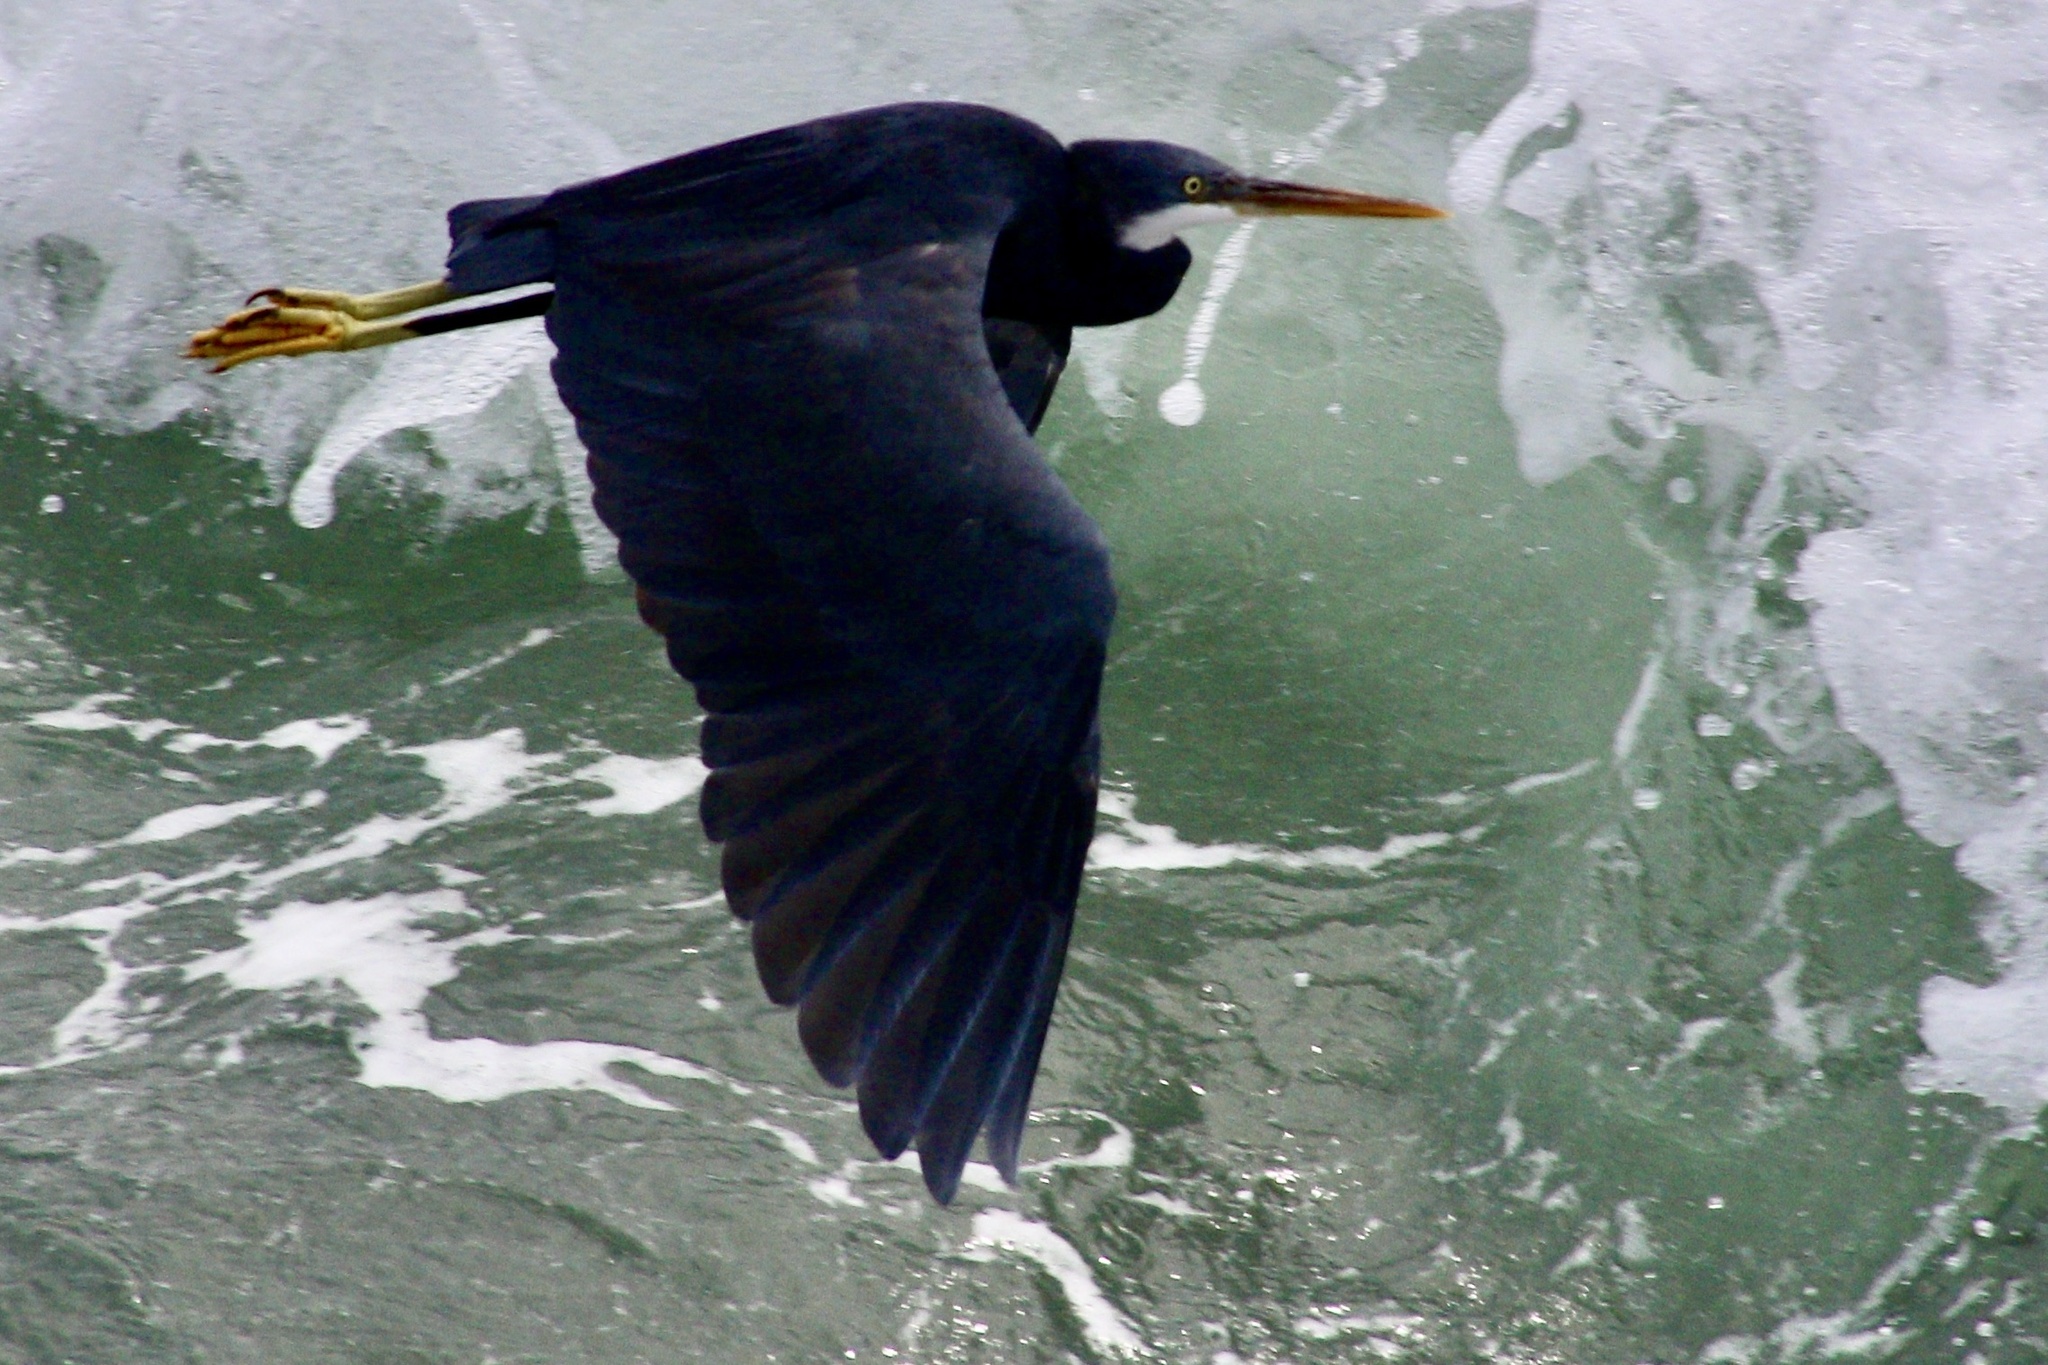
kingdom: Animalia
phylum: Chordata
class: Aves
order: Pelecaniformes
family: Ardeidae
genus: Egretta
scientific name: Egretta gularis
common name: Western reef-heron
